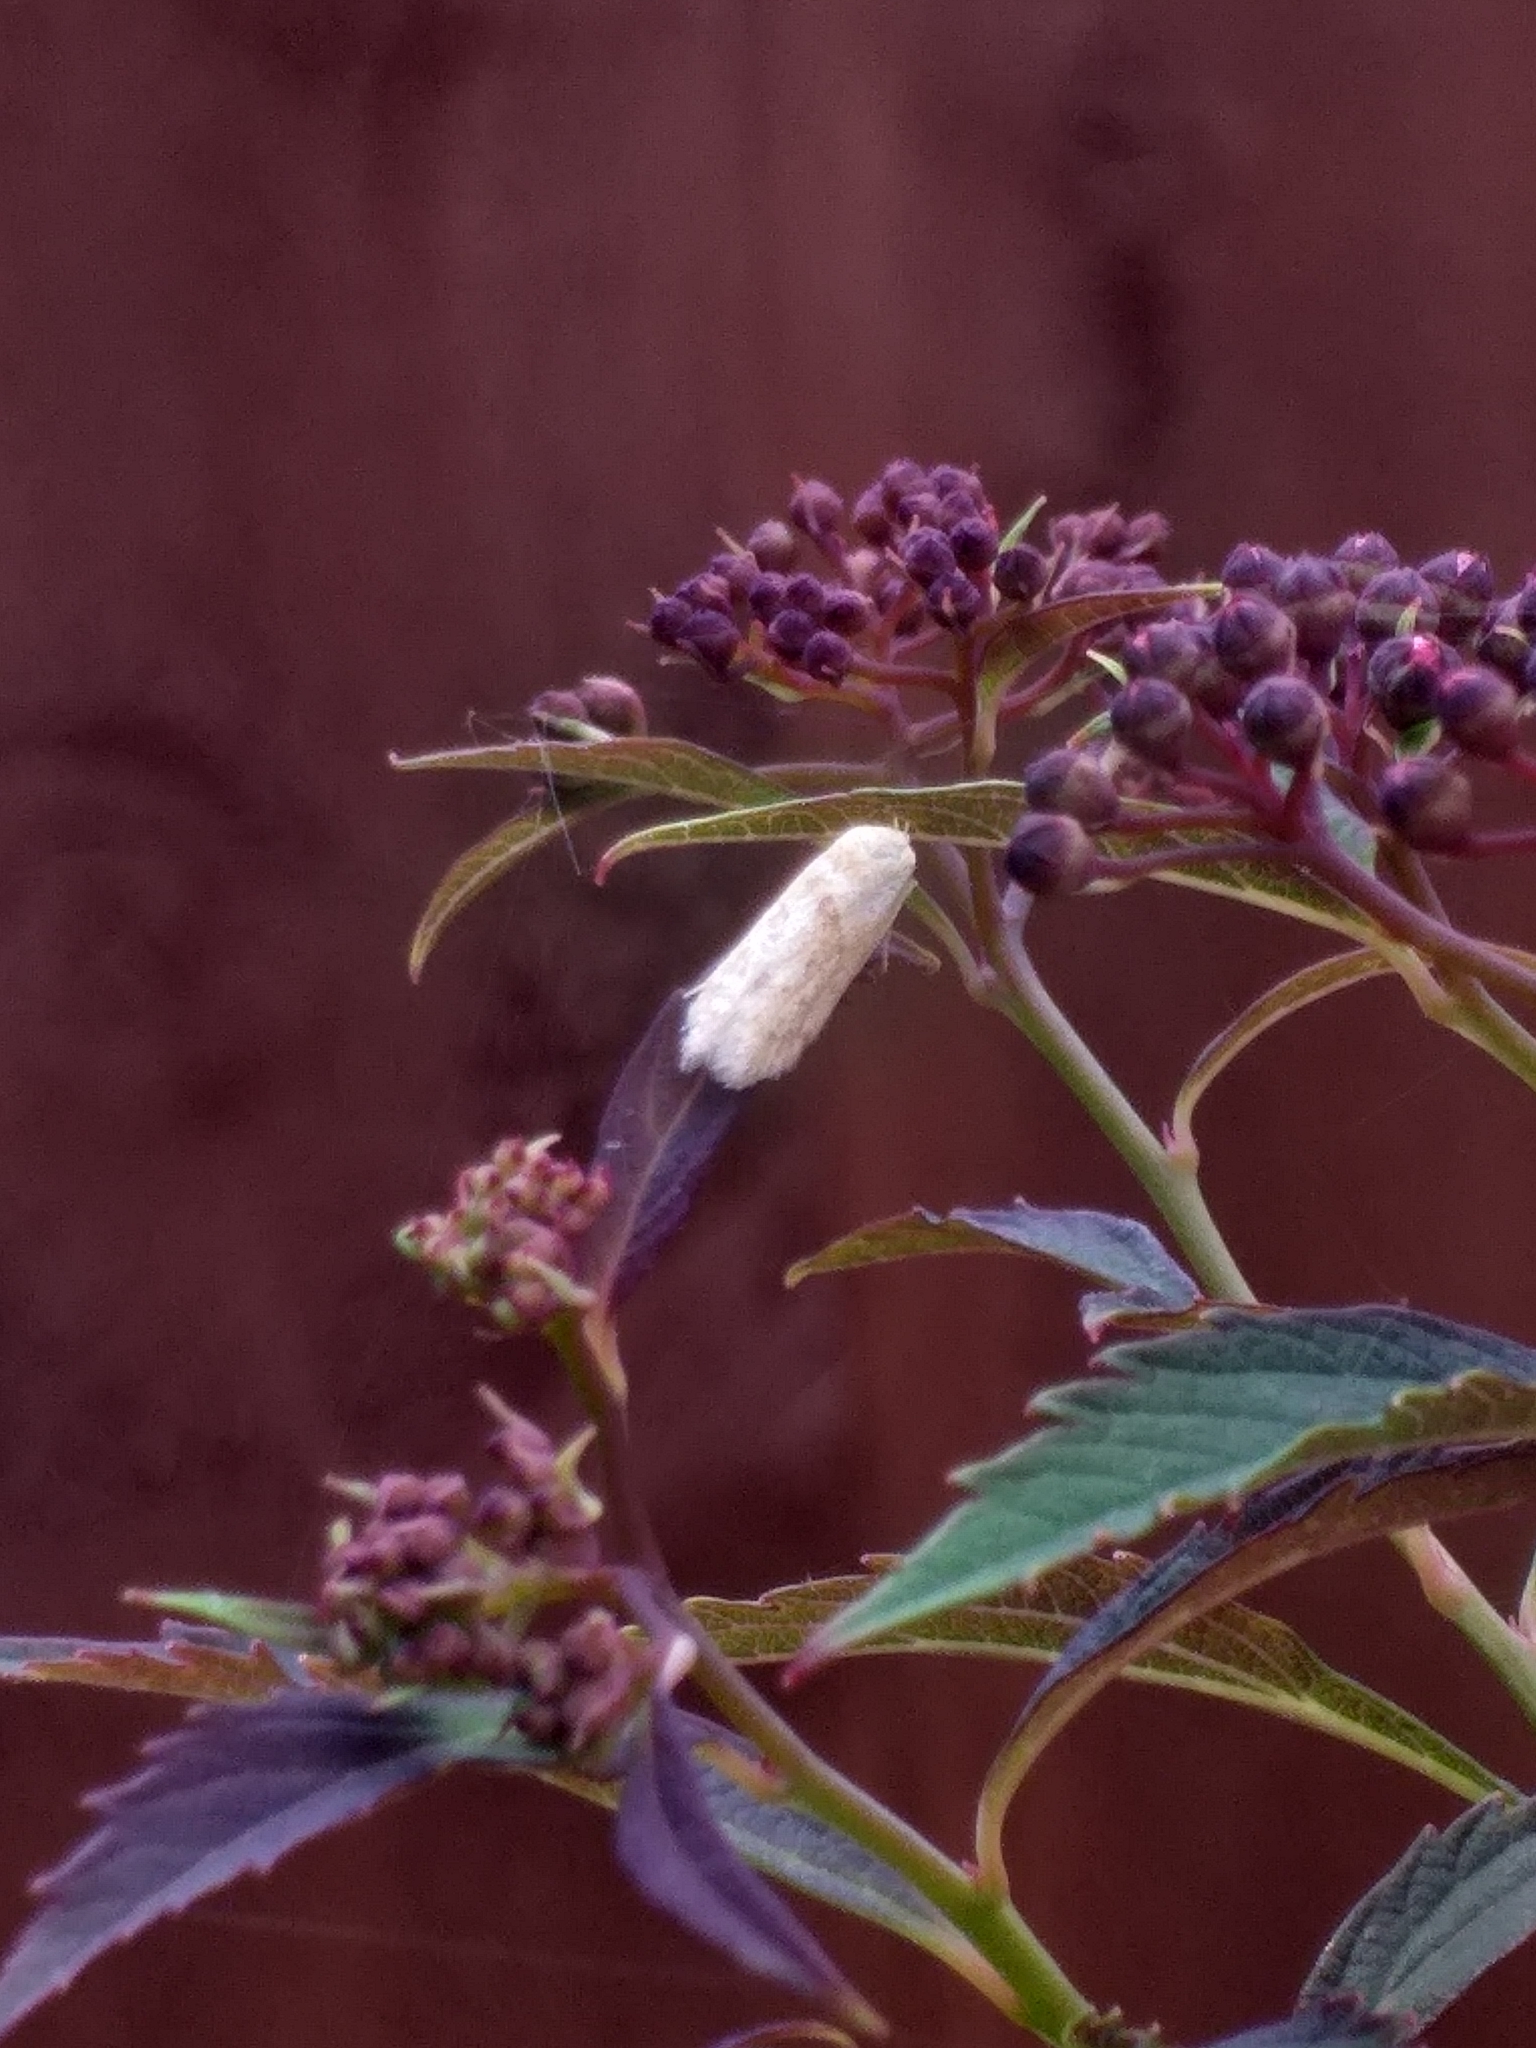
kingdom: Animalia
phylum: Arthropoda
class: Insecta
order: Lepidoptera
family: Blastobasidae
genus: Blastobasis
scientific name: Blastobasis lacticolella
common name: London dowd
